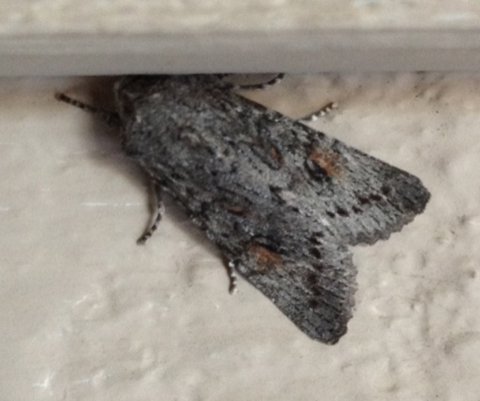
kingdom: Animalia
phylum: Arthropoda
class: Insecta
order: Lepidoptera
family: Noctuidae
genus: Egira
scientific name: Egira curialis
